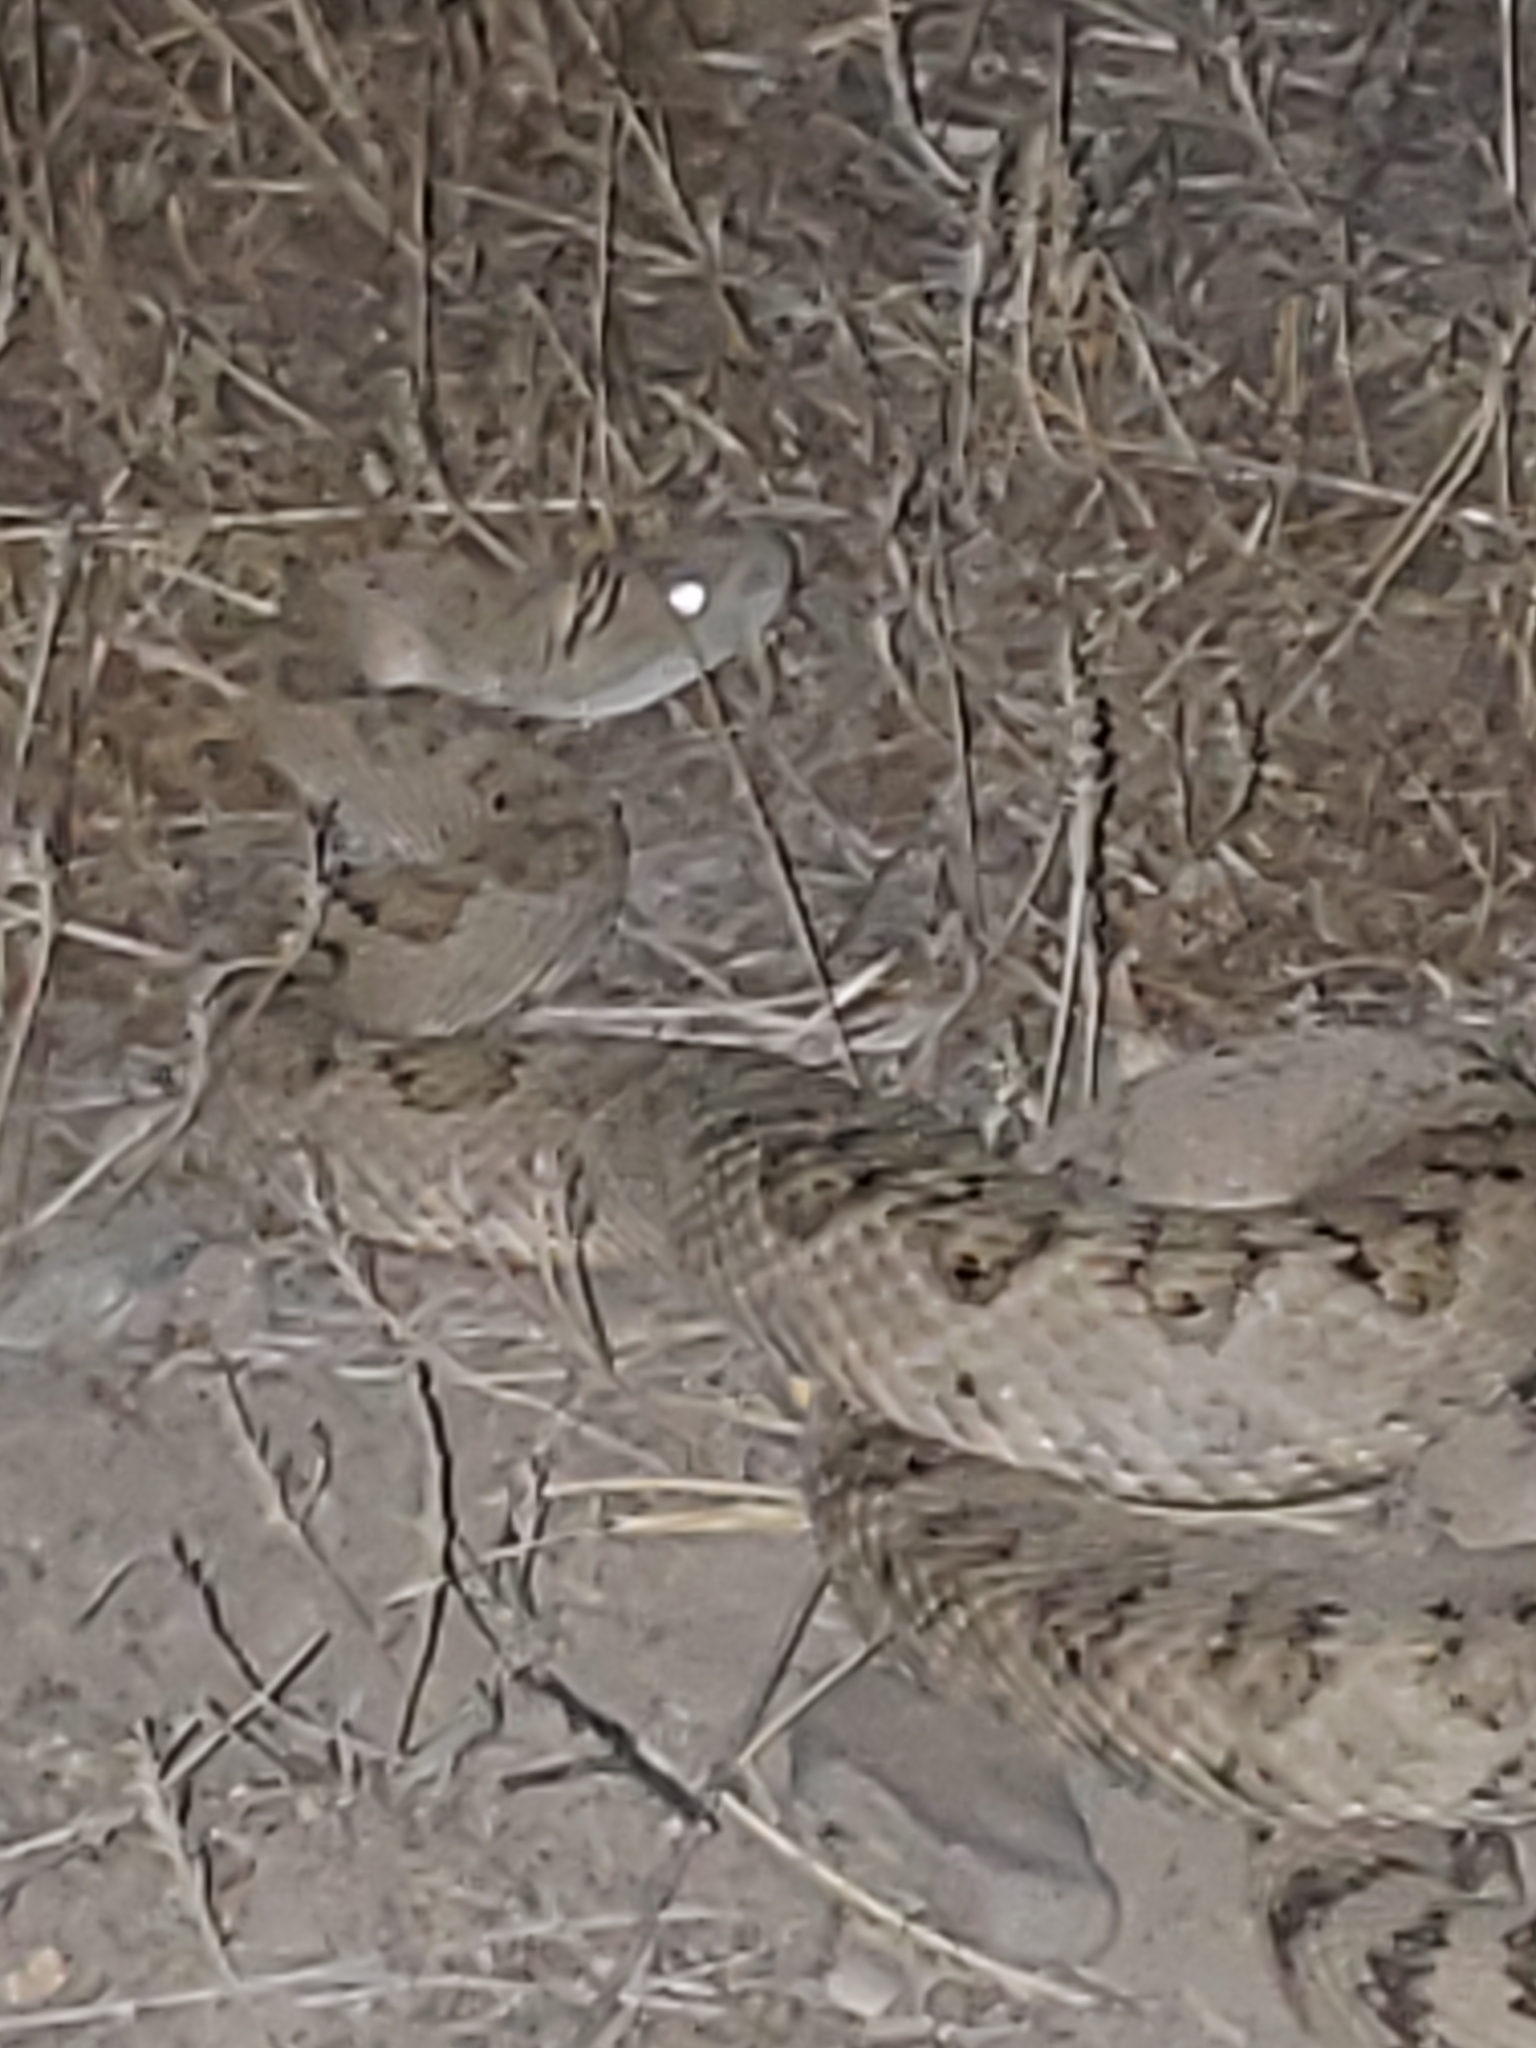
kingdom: Animalia
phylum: Chordata
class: Squamata
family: Viperidae
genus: Crotalus
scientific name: Crotalus oreganus
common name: Abyssus
